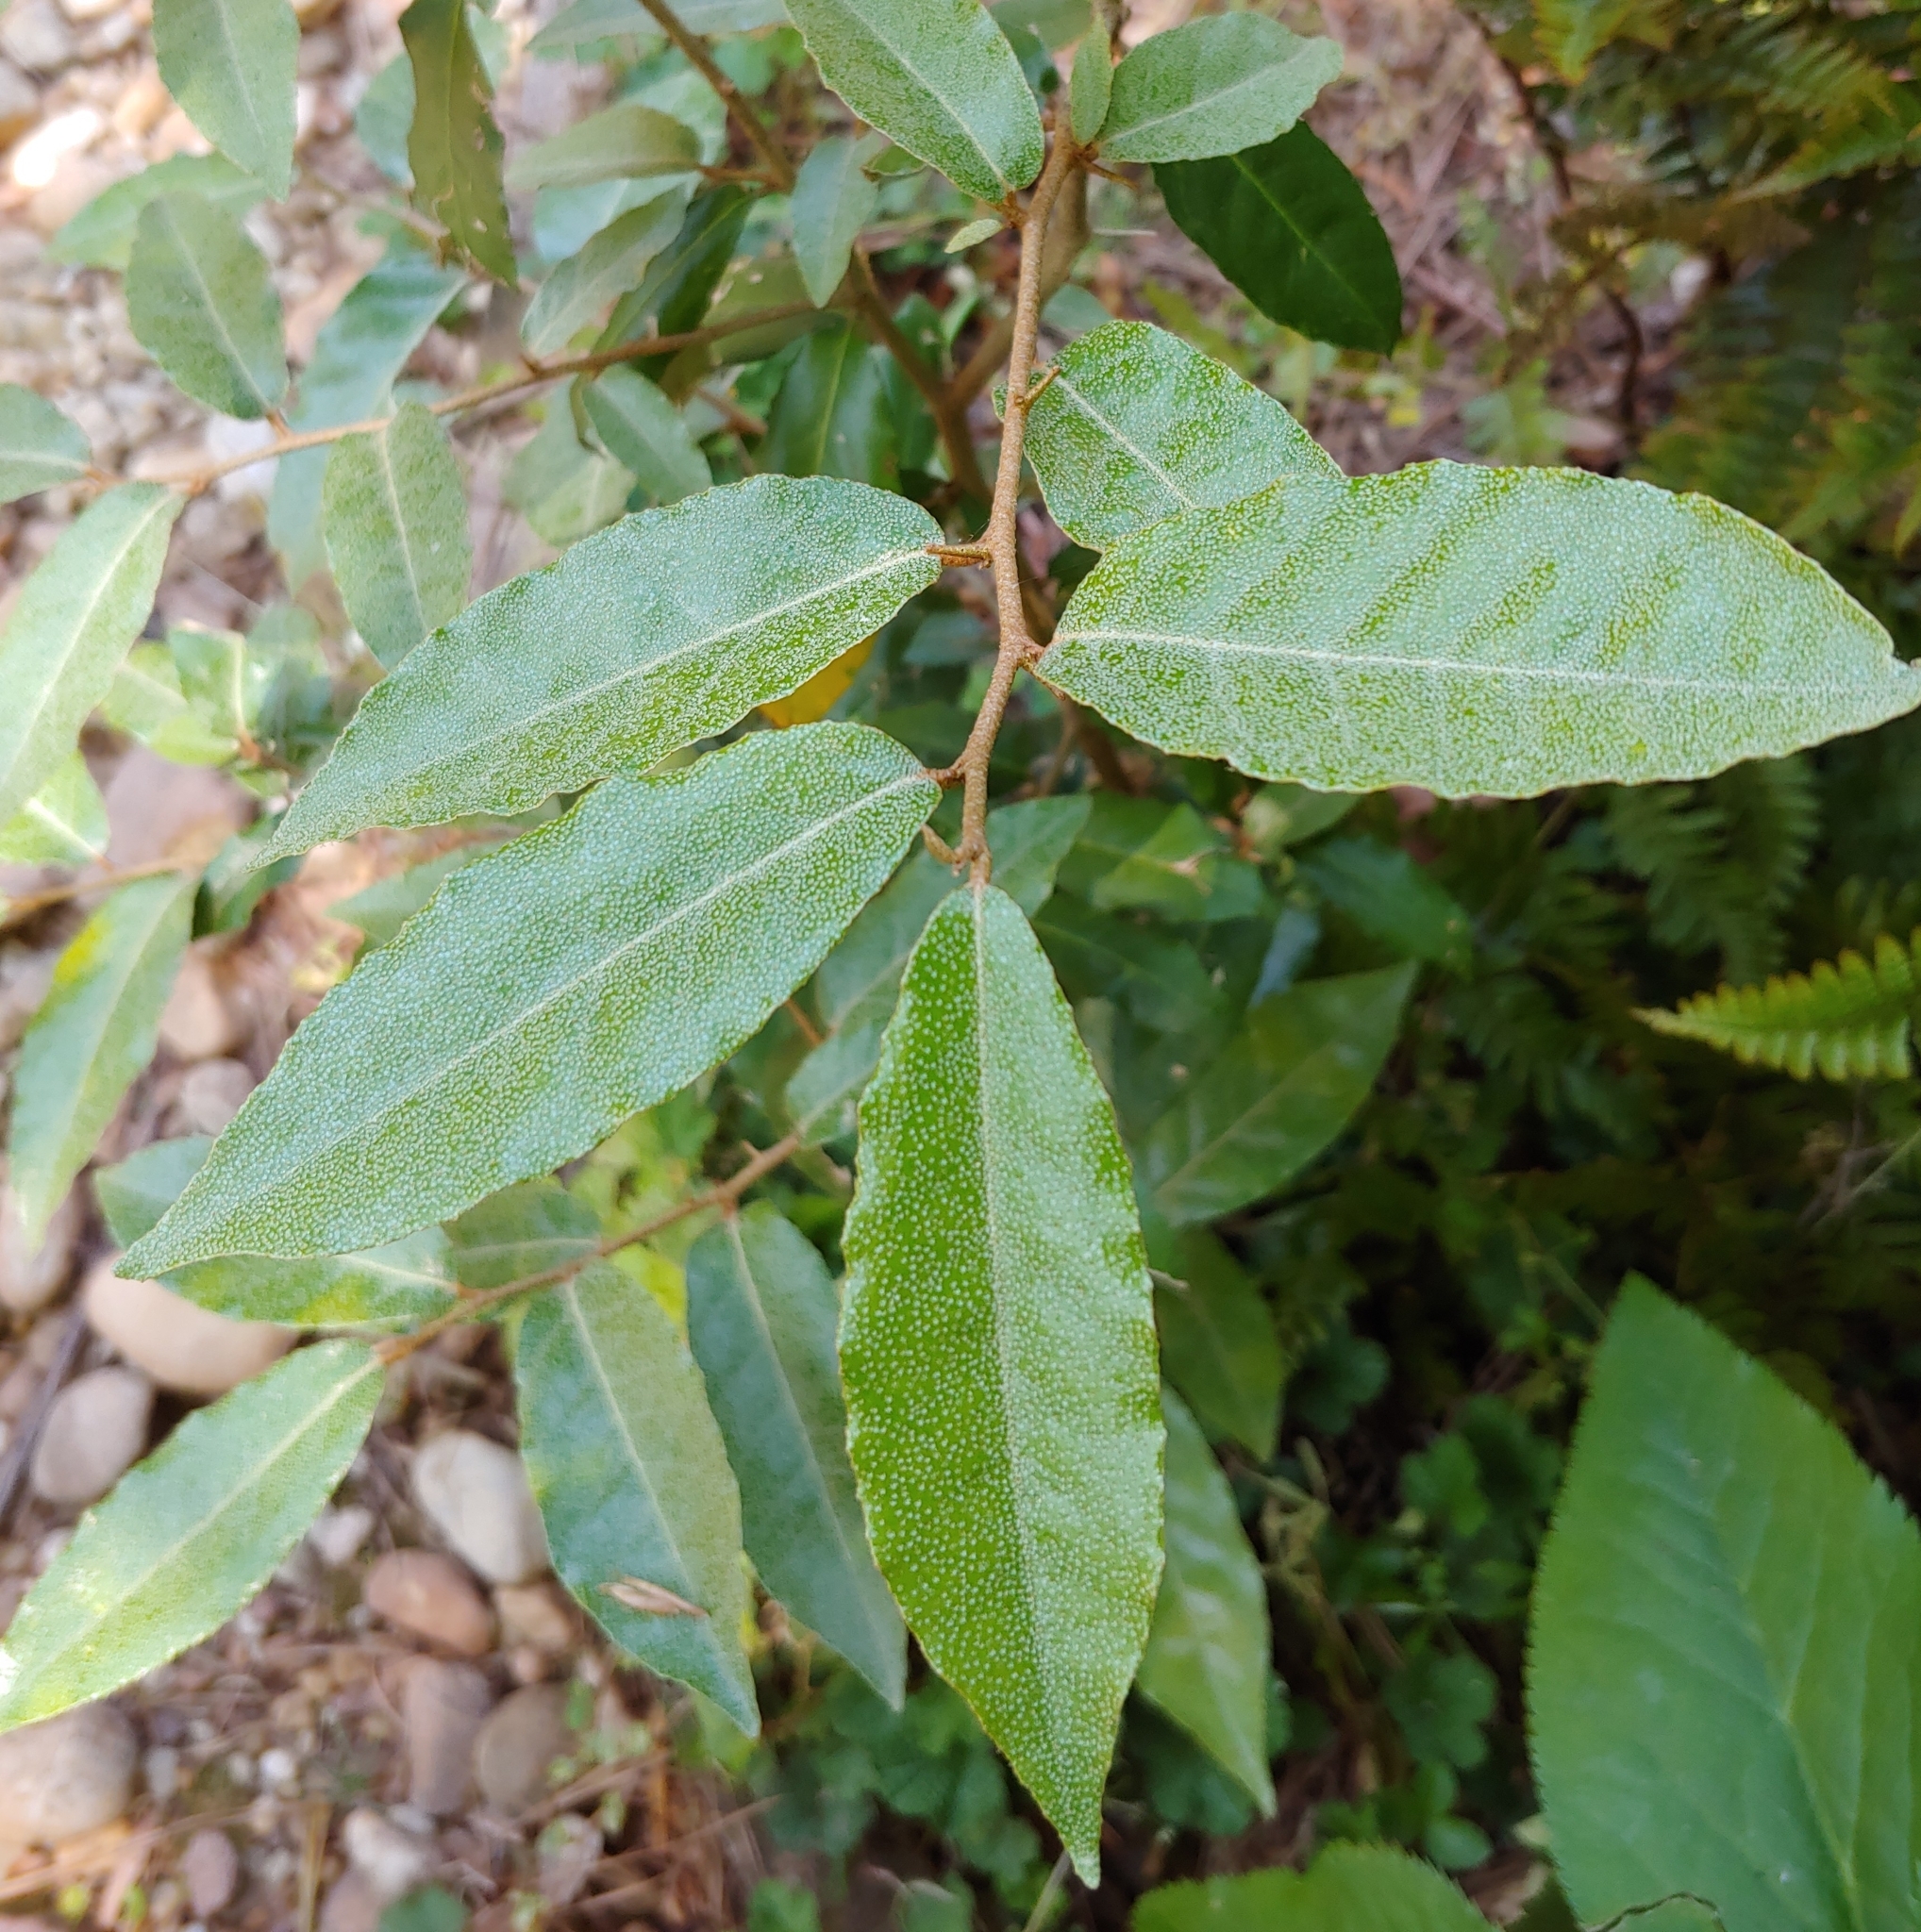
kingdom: Plantae
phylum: Tracheophyta
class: Magnoliopsida
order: Rosales
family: Elaeagnaceae
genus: Elaeagnus
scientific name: Elaeagnus pungens
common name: Spiny oleaster
